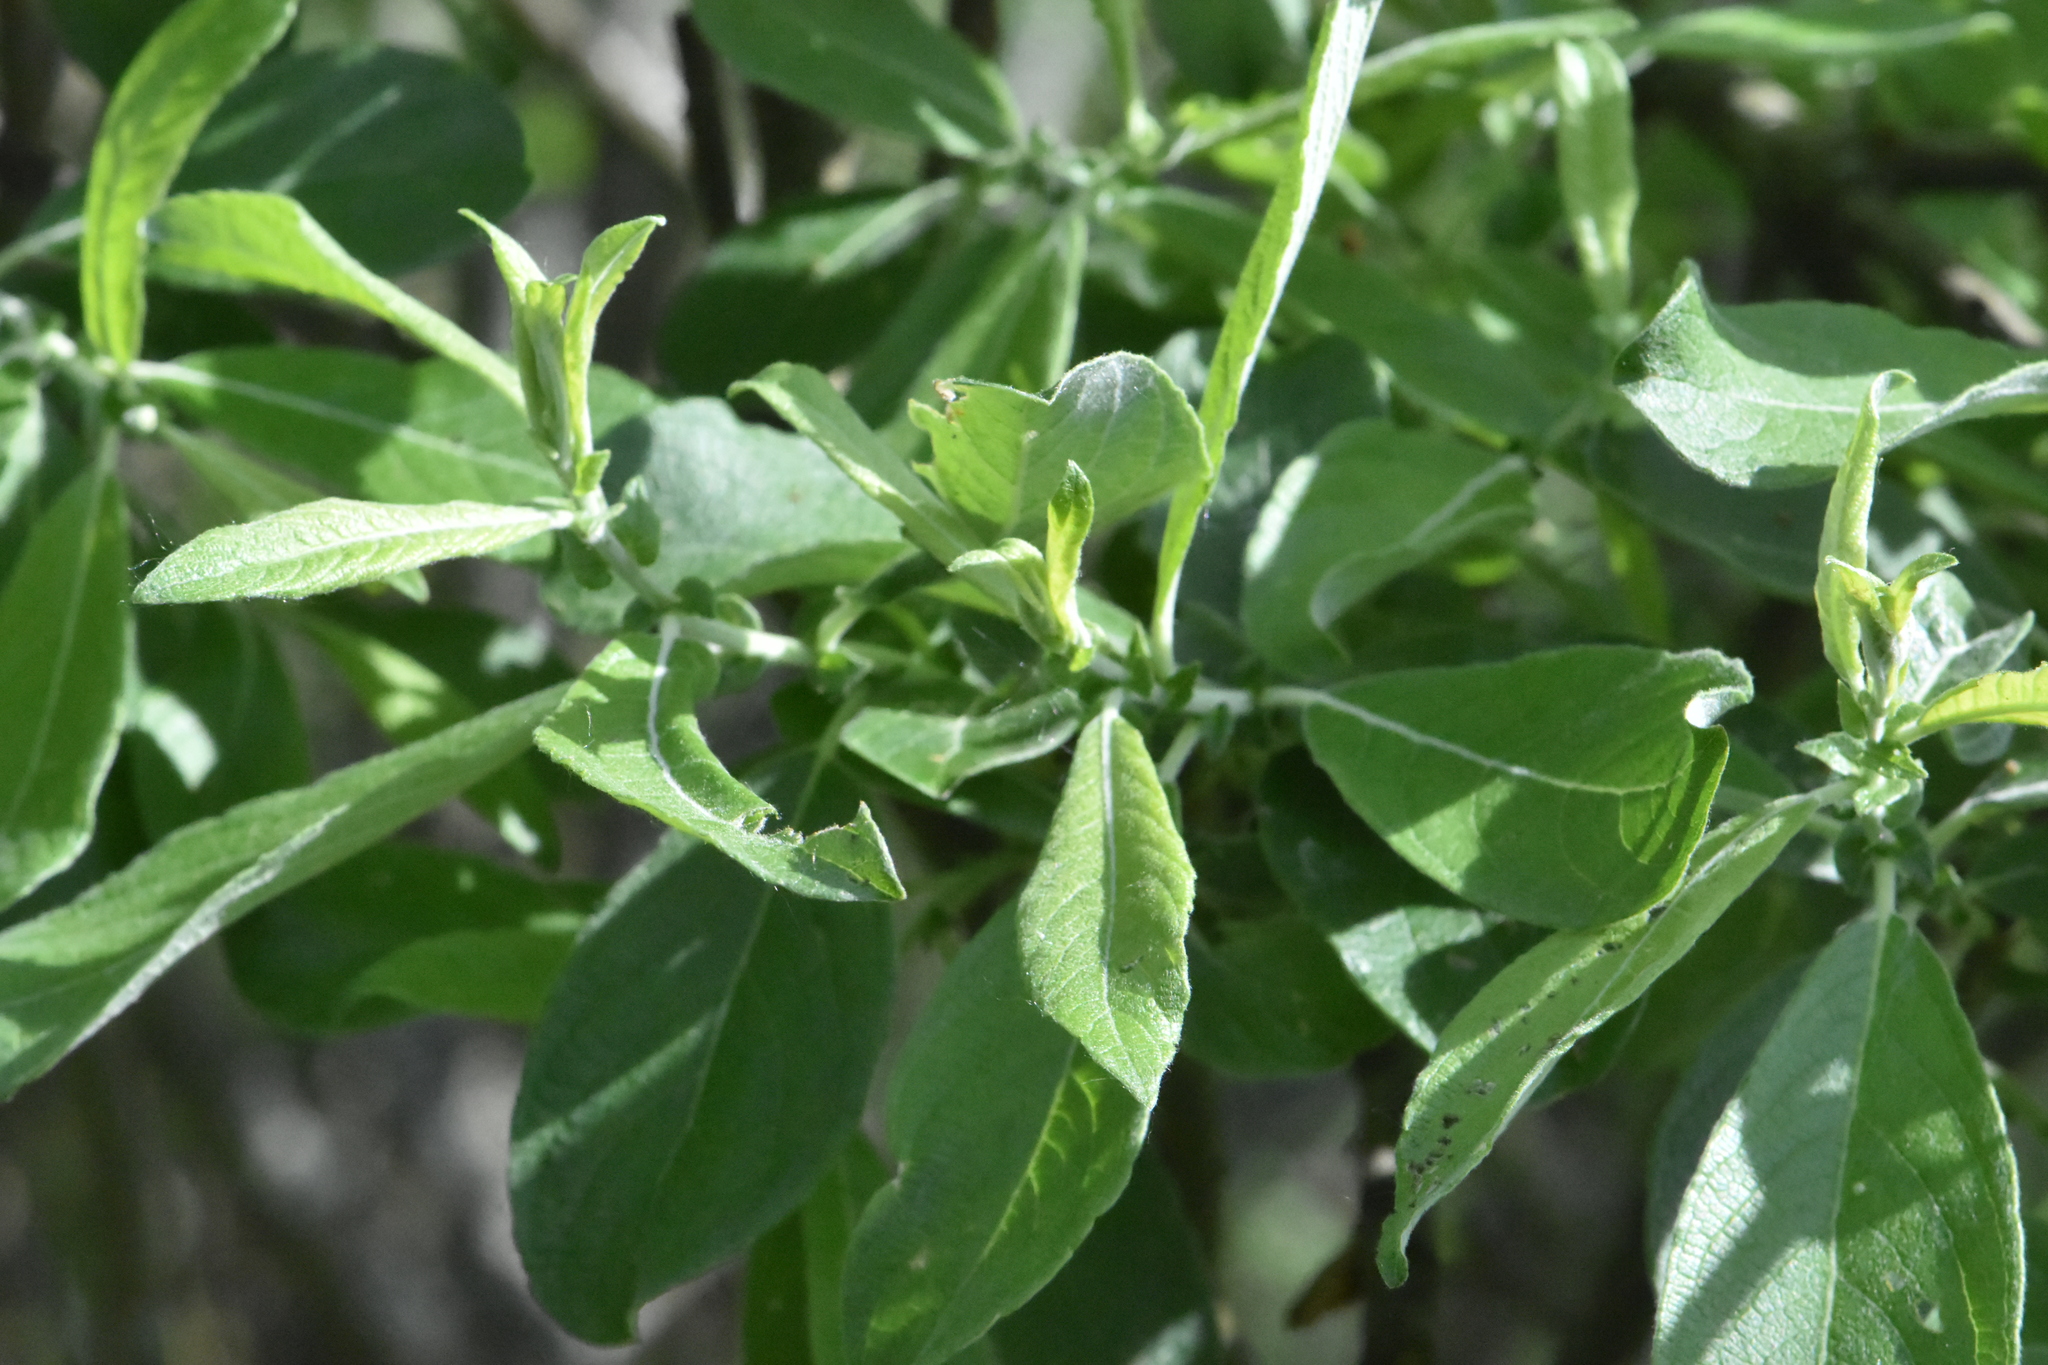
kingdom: Plantae
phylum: Tracheophyta
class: Magnoliopsida
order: Malpighiales
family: Salicaceae
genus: Salix
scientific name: Salix cinerea
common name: Common sallow
